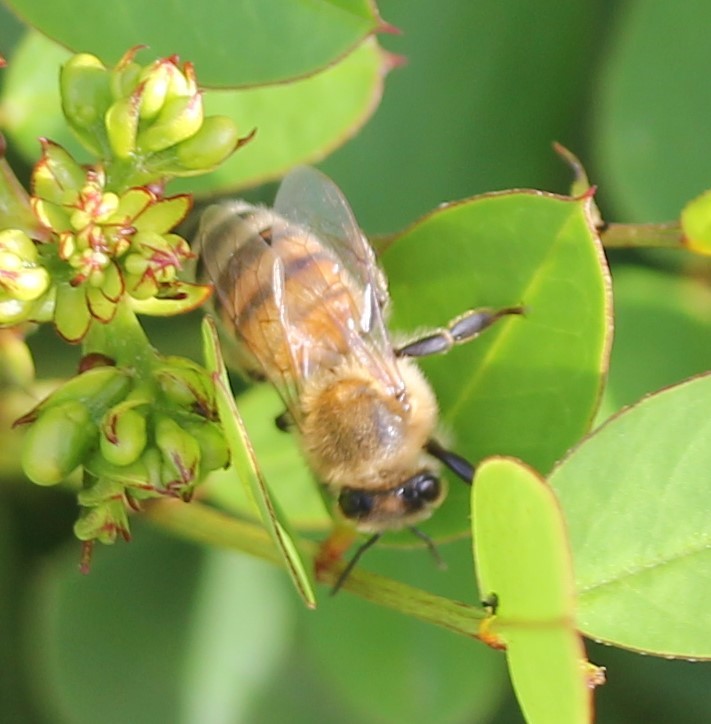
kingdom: Animalia
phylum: Arthropoda
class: Insecta
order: Hymenoptera
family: Apidae
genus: Apis
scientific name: Apis mellifera
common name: Honey bee
